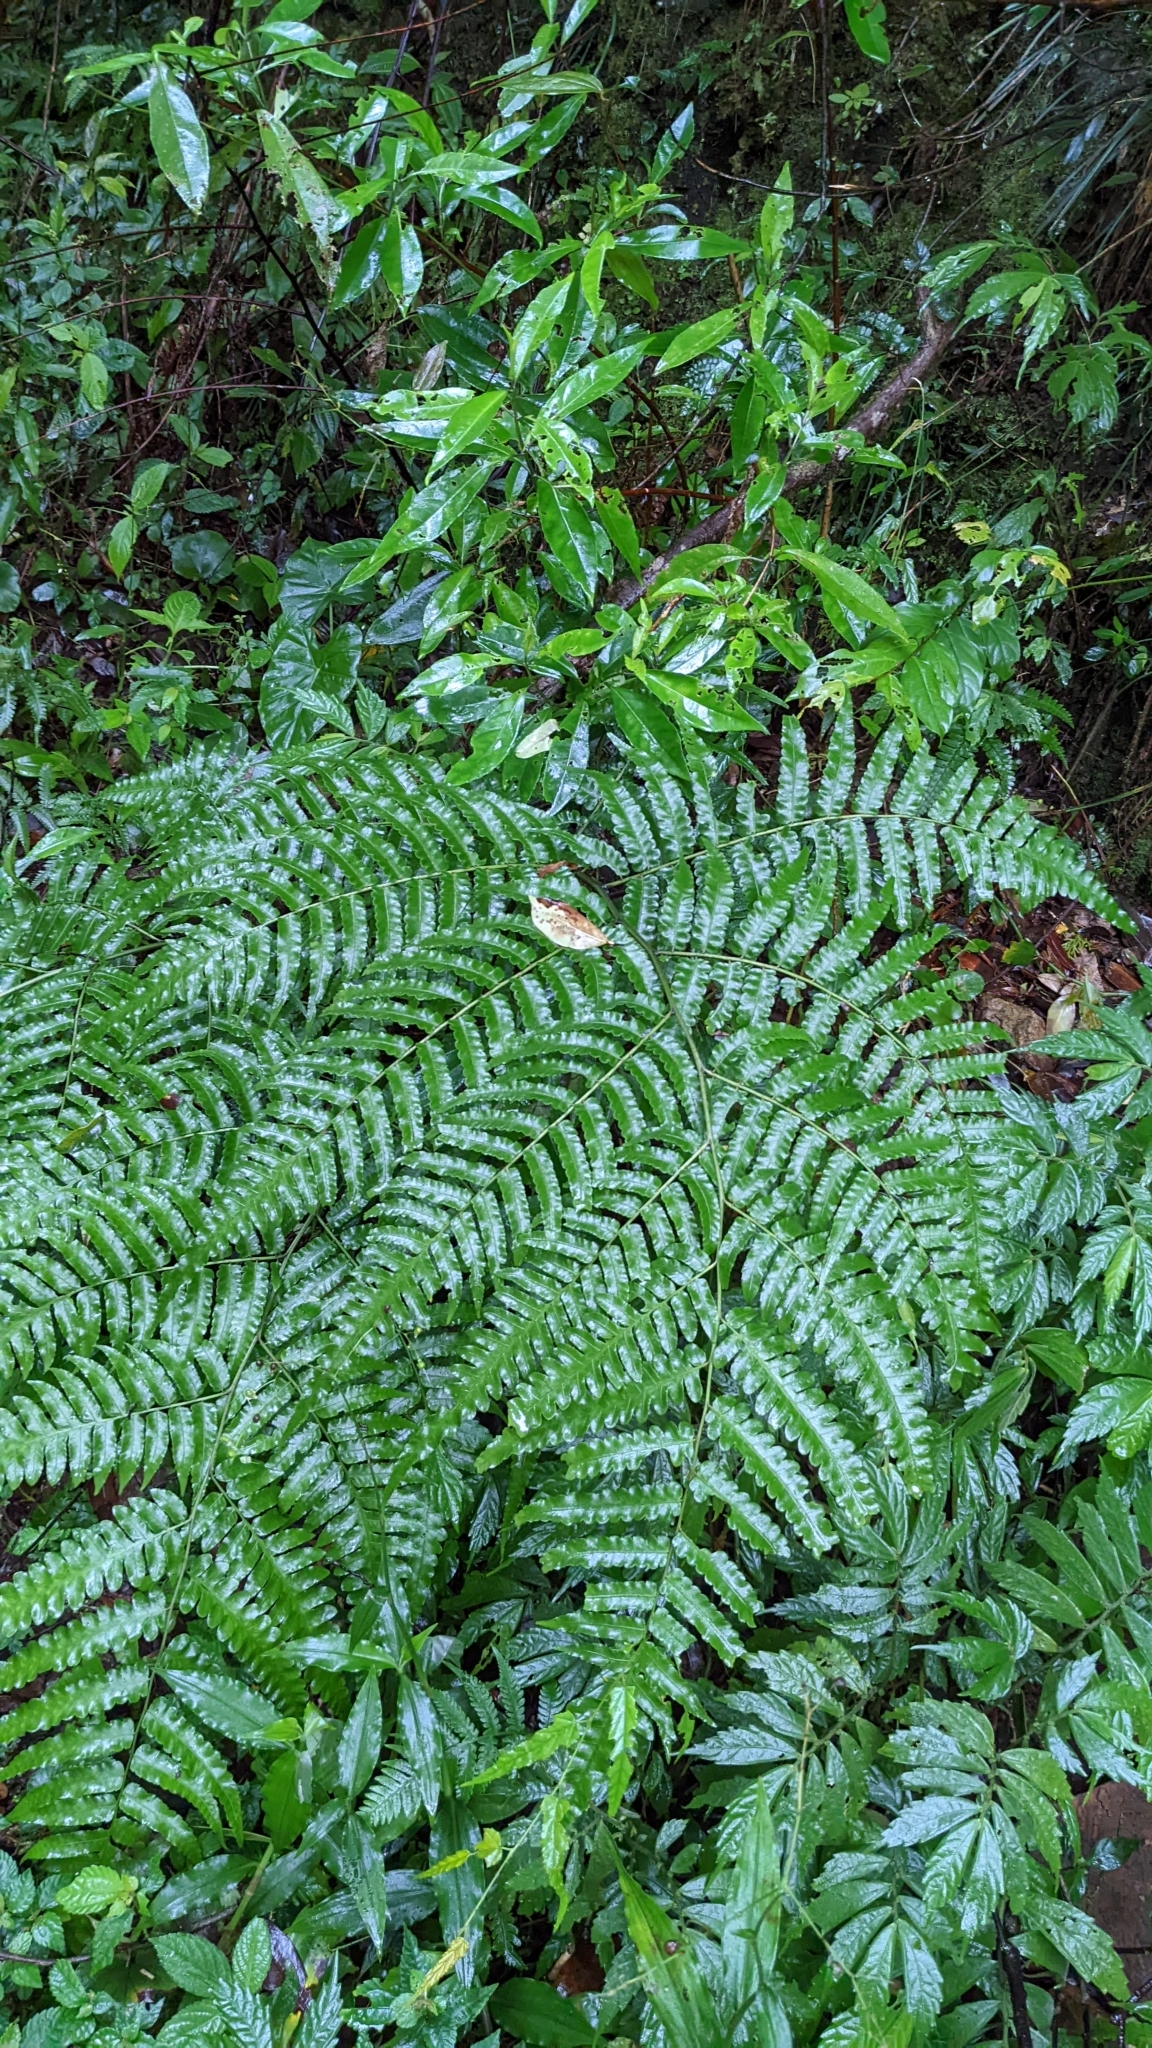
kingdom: Plantae
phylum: Tracheophyta
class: Polypodiopsida
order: Polypodiales
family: Athyriaceae
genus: Diplazium
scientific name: Diplazium dilatatum
